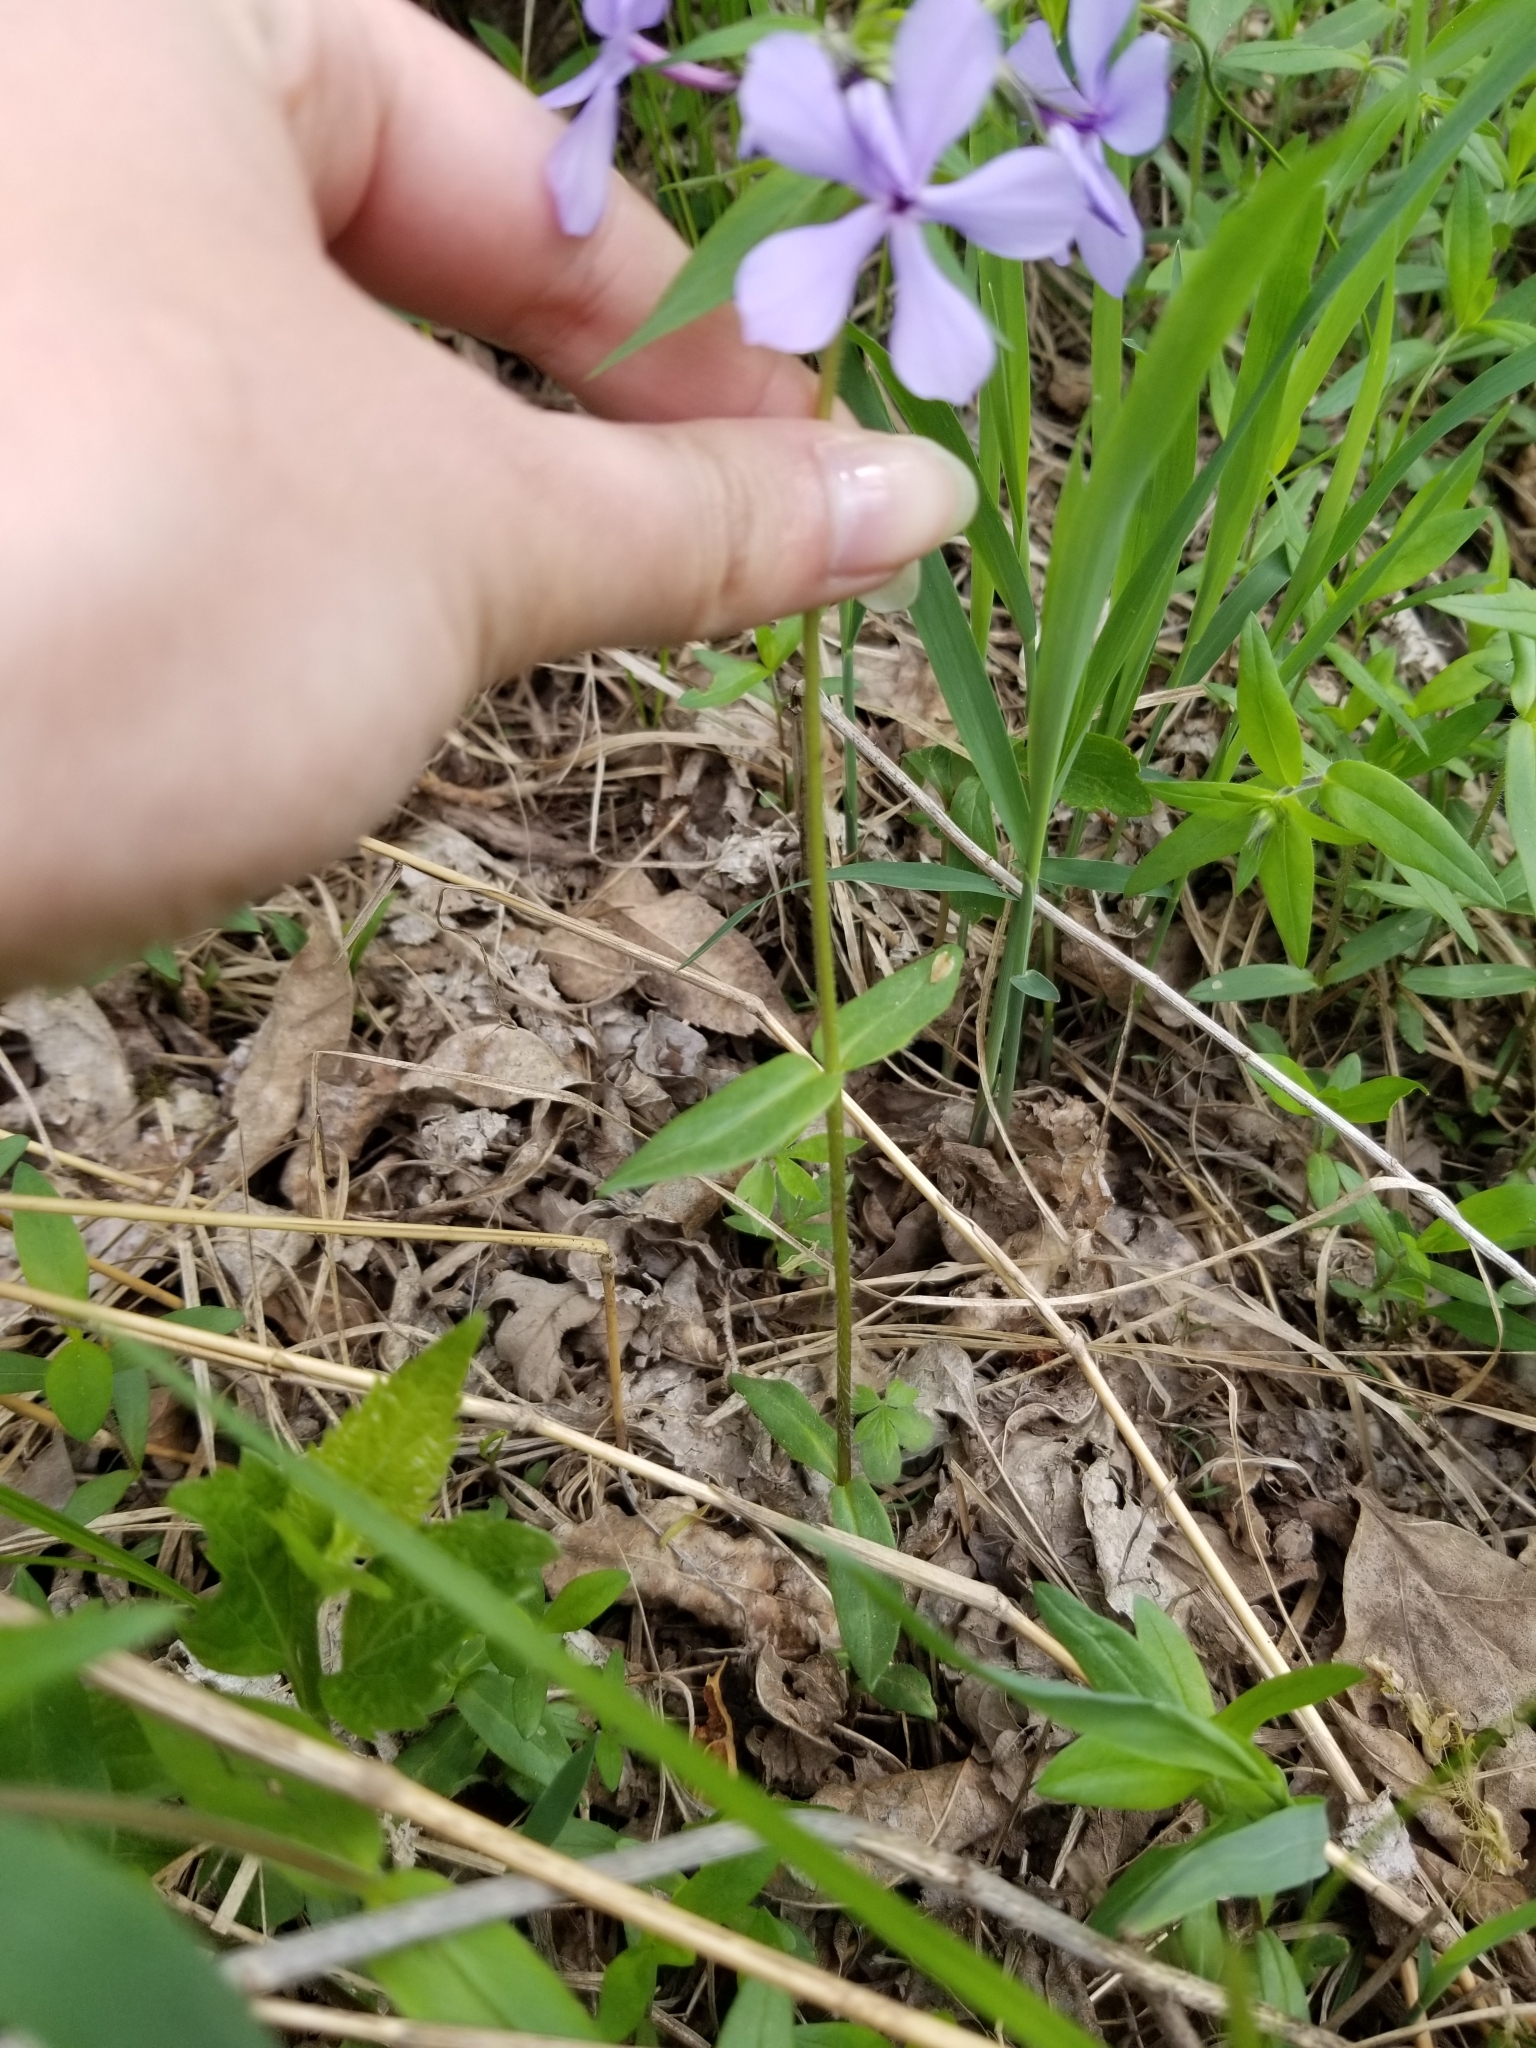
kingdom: Plantae
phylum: Tracheophyta
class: Magnoliopsida
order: Ericales
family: Polemoniaceae
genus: Phlox
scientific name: Phlox divaricata
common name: Blue phlox
